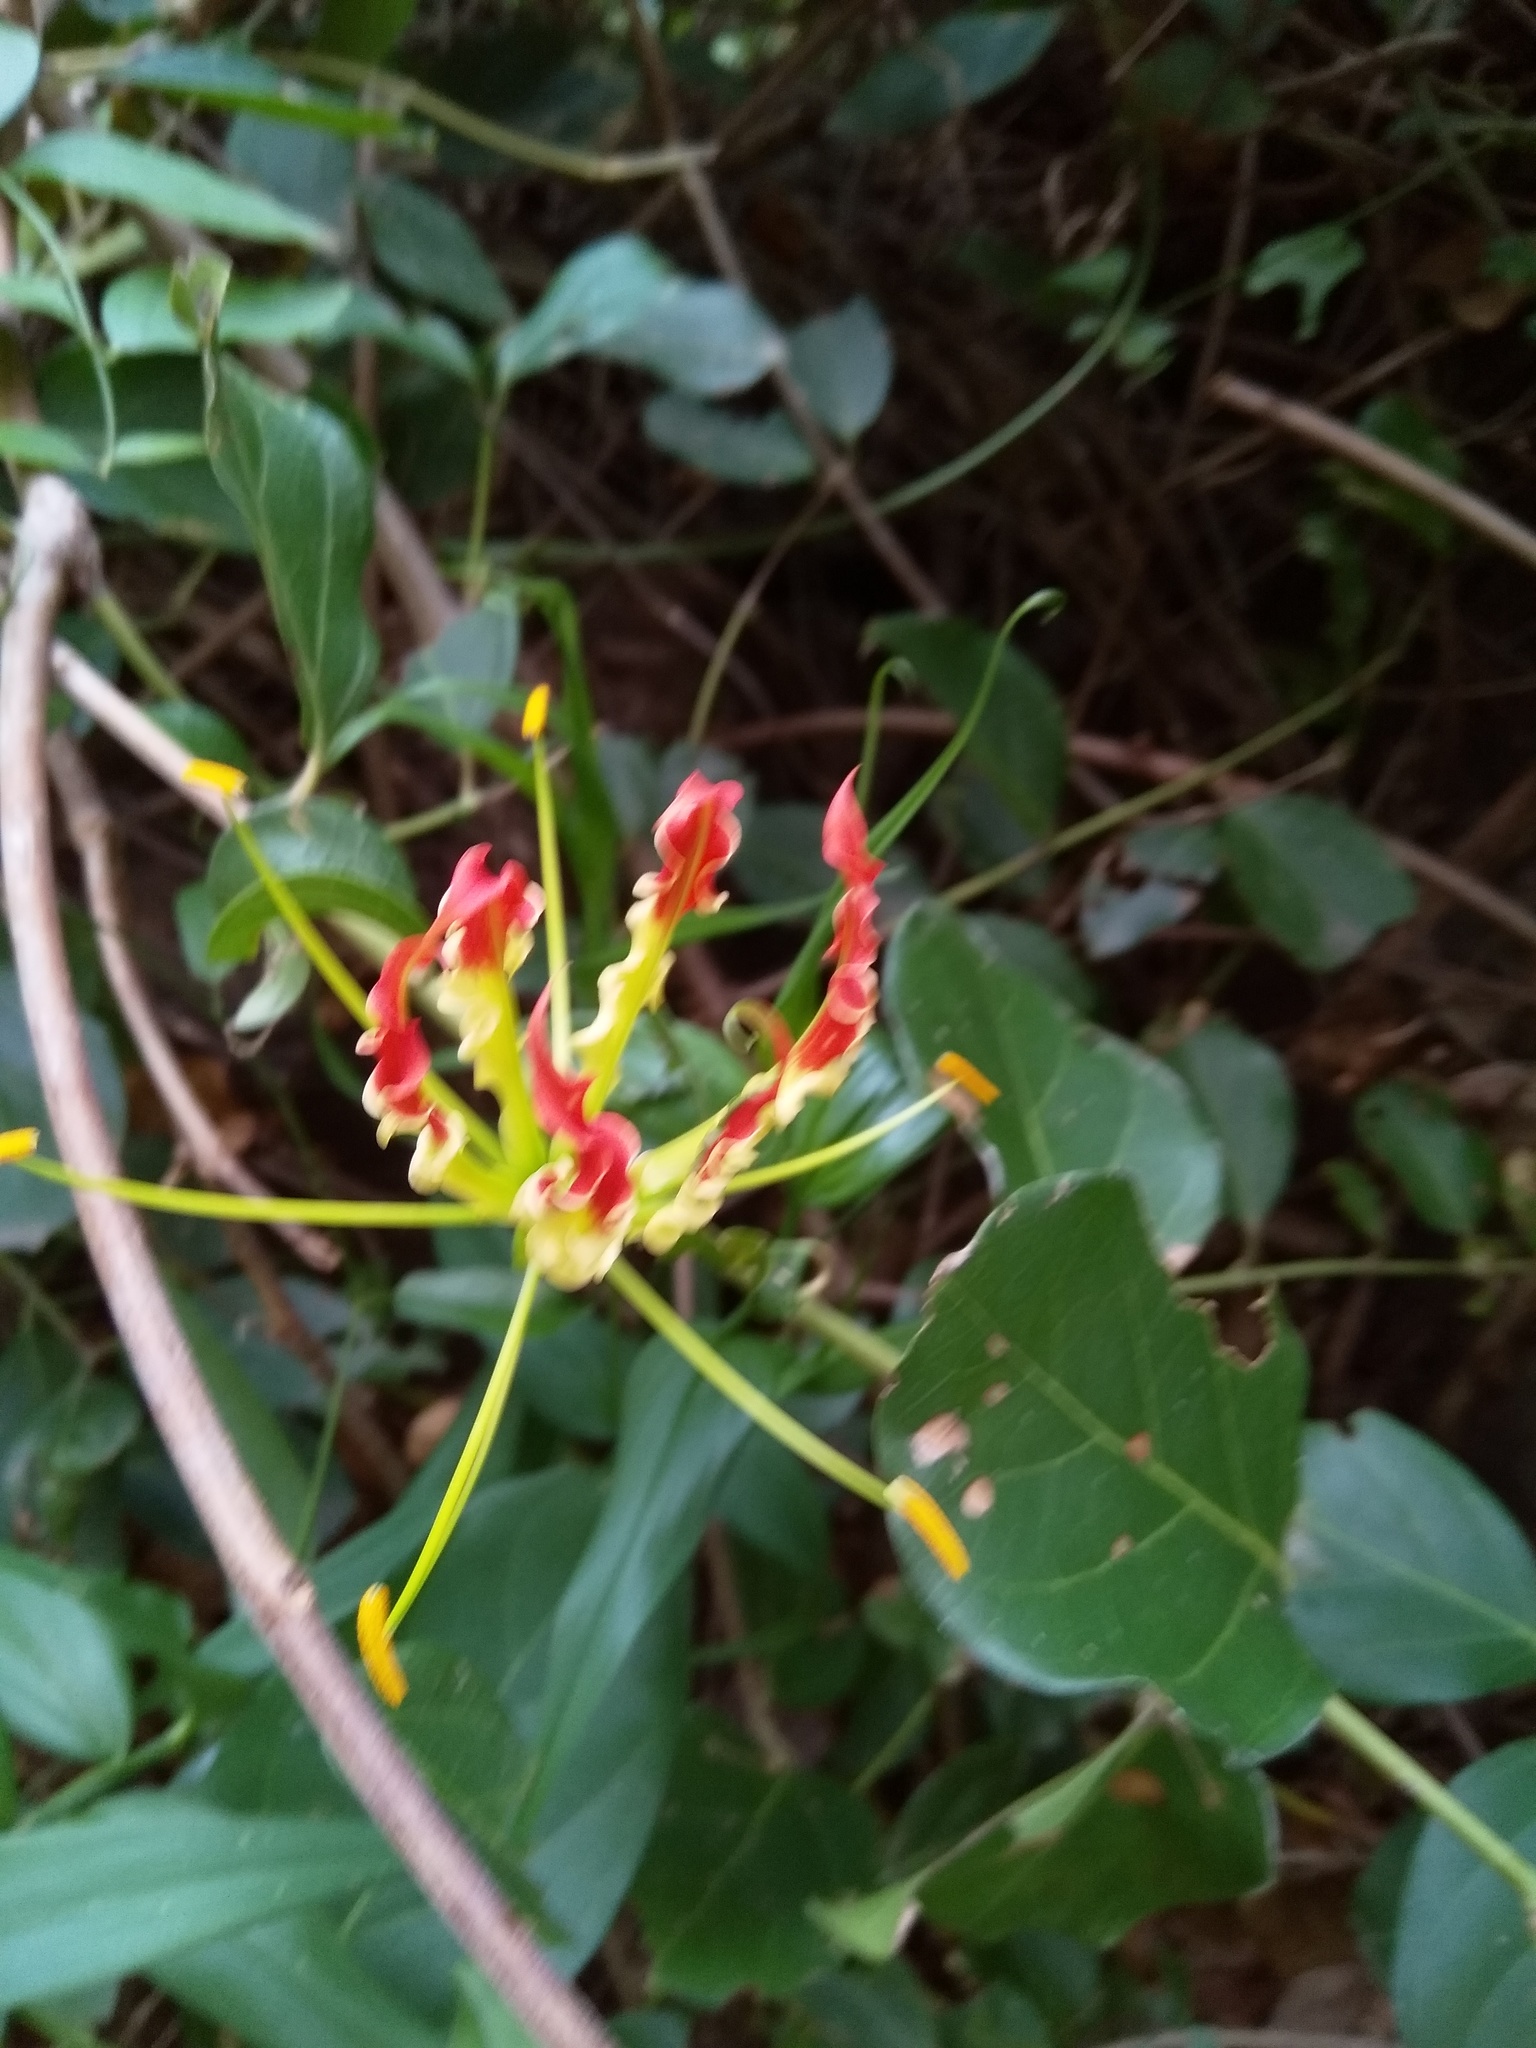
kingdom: Plantae
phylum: Tracheophyta
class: Liliopsida
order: Liliales
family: Colchicaceae
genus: Gloriosa
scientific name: Gloriosa superba
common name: Flame lily
